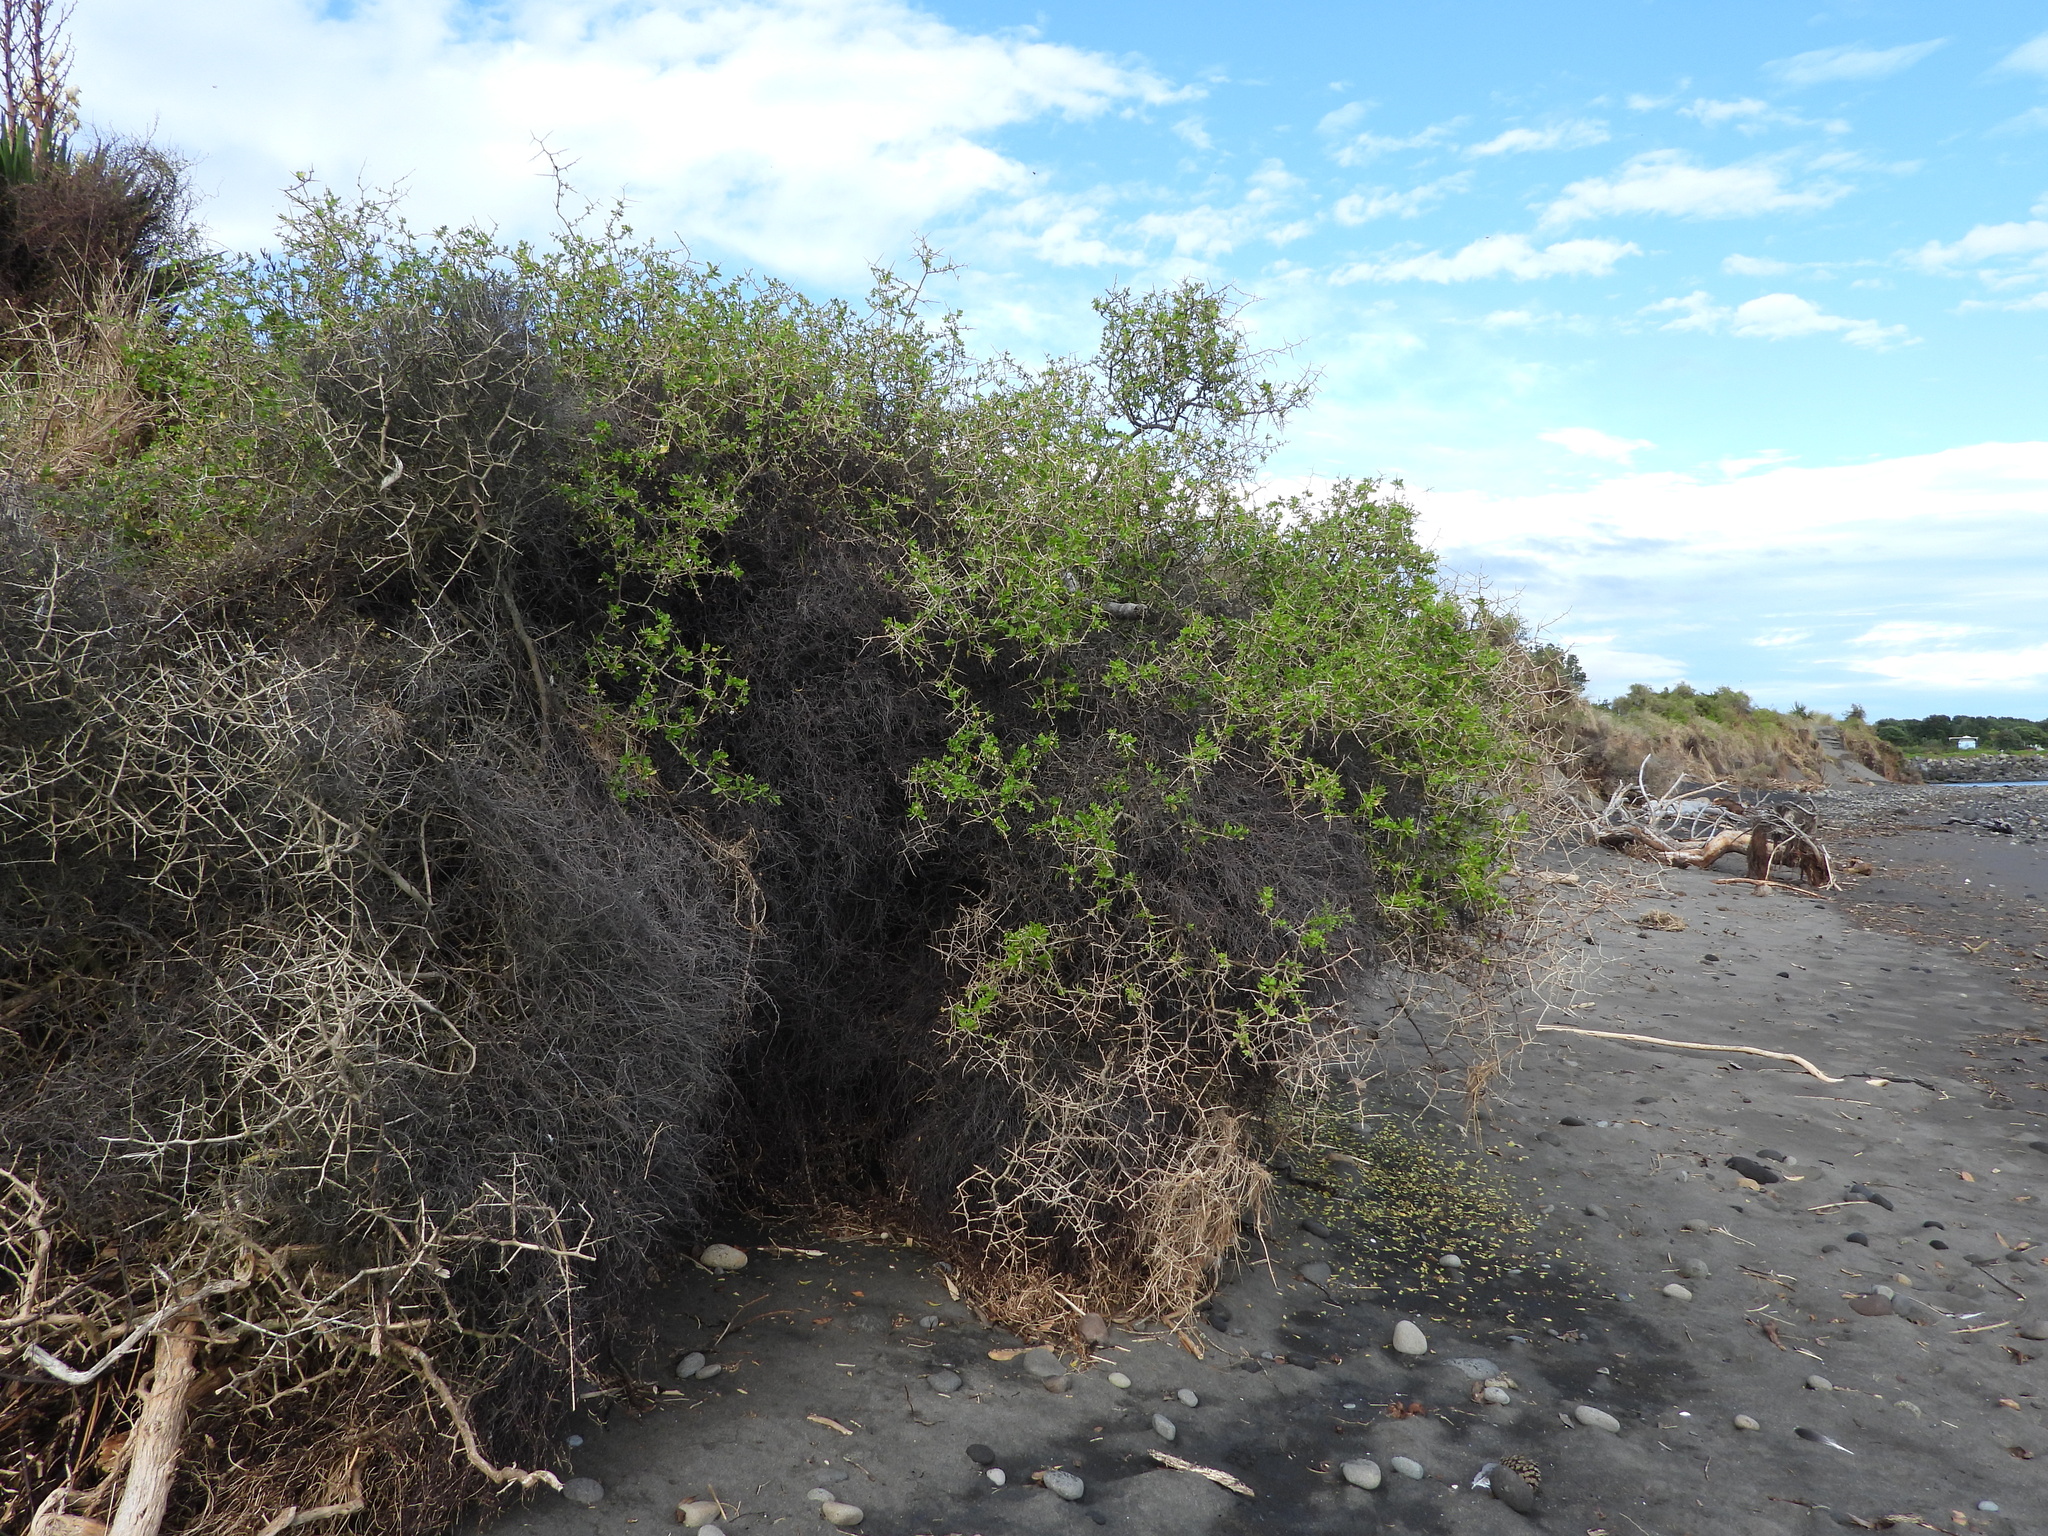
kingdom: Plantae
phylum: Tracheophyta
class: Magnoliopsida
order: Solanales
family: Solanaceae
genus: Lycium
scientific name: Lycium ferocissimum
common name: African boxthorn
